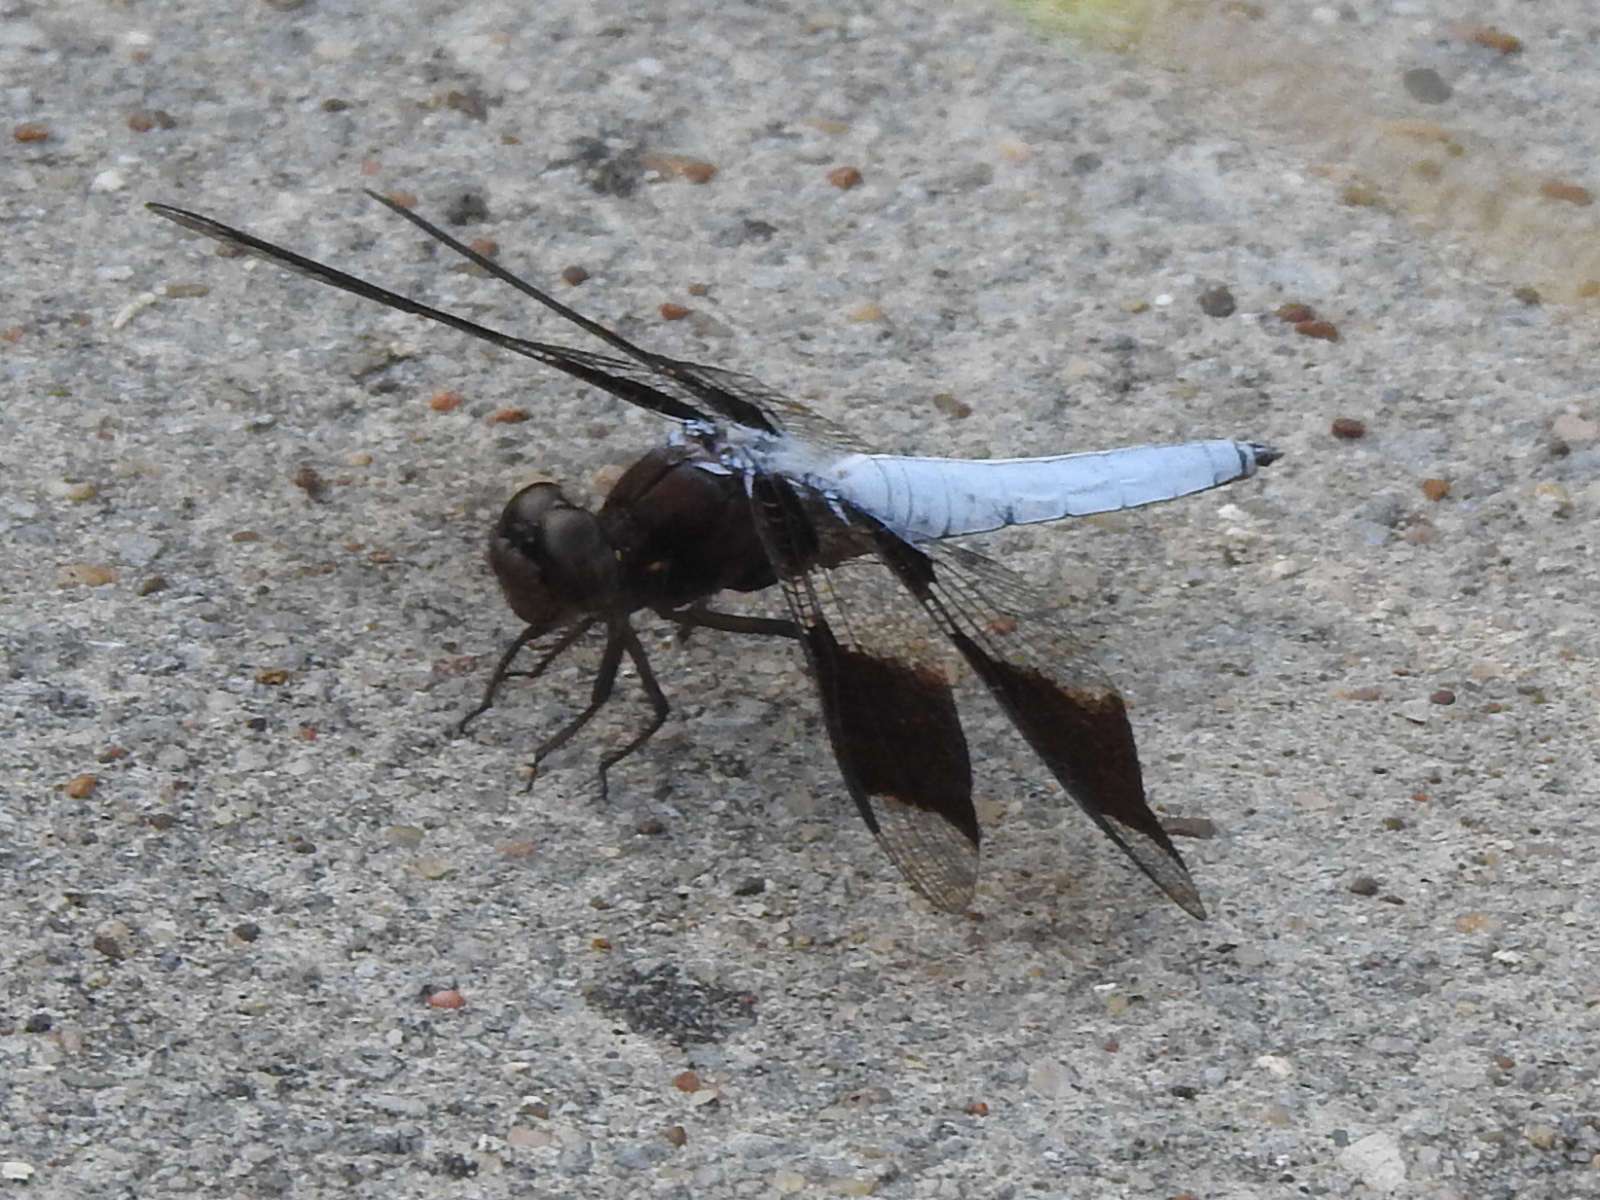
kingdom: Animalia
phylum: Arthropoda
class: Insecta
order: Odonata
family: Libellulidae
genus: Plathemis
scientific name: Plathemis lydia
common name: Common whitetail
